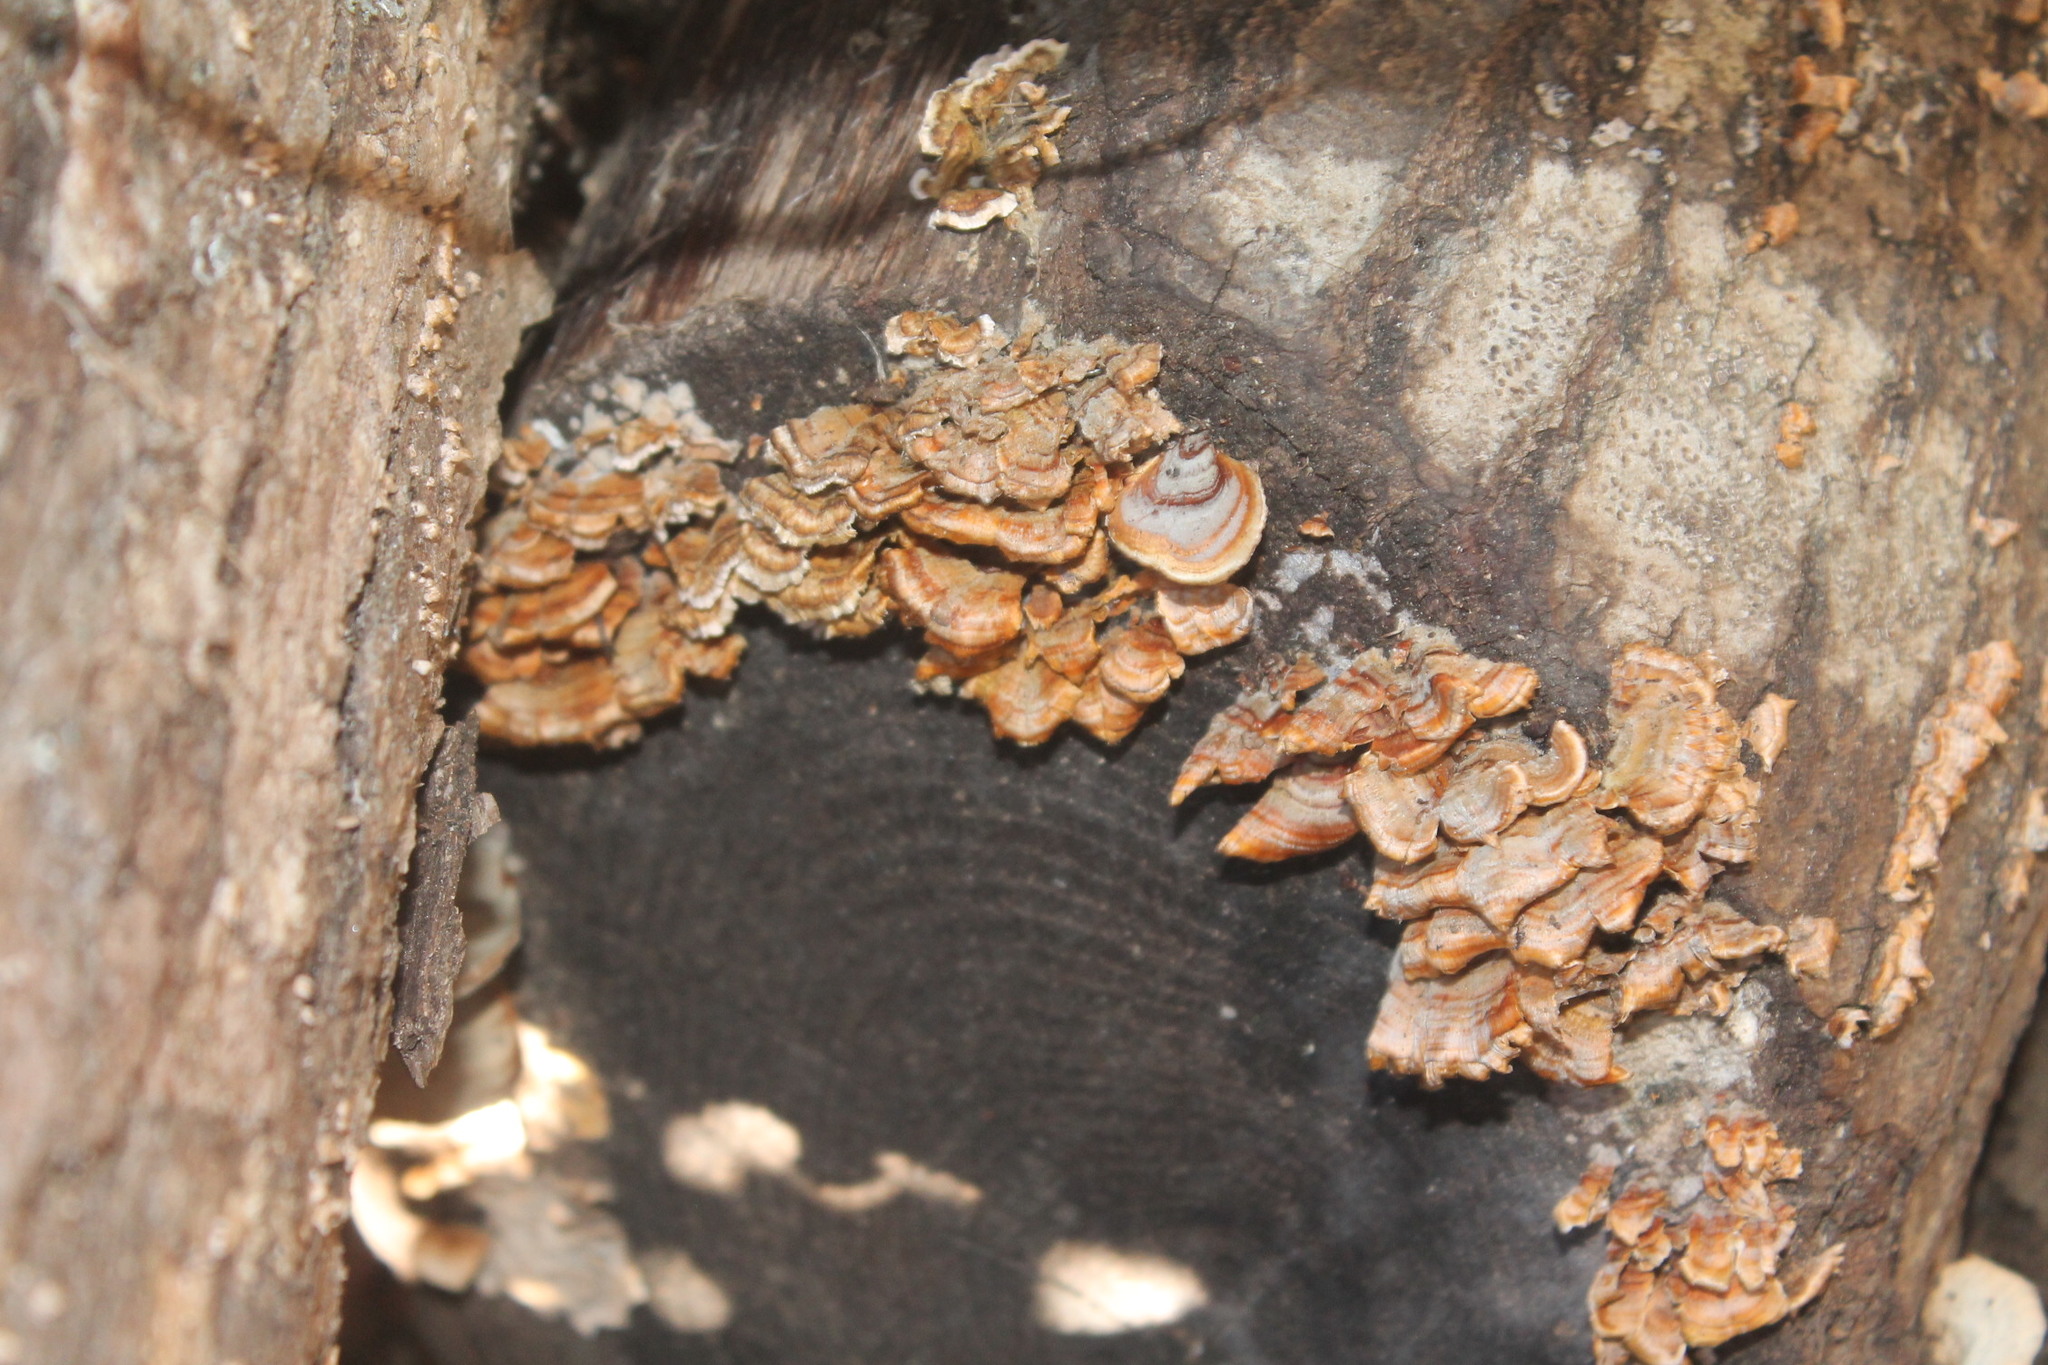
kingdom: Fungi
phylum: Basidiomycota
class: Agaricomycetes
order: Russulales
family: Stereaceae
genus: Stereum
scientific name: Stereum complicatum
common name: Crowded parchment
